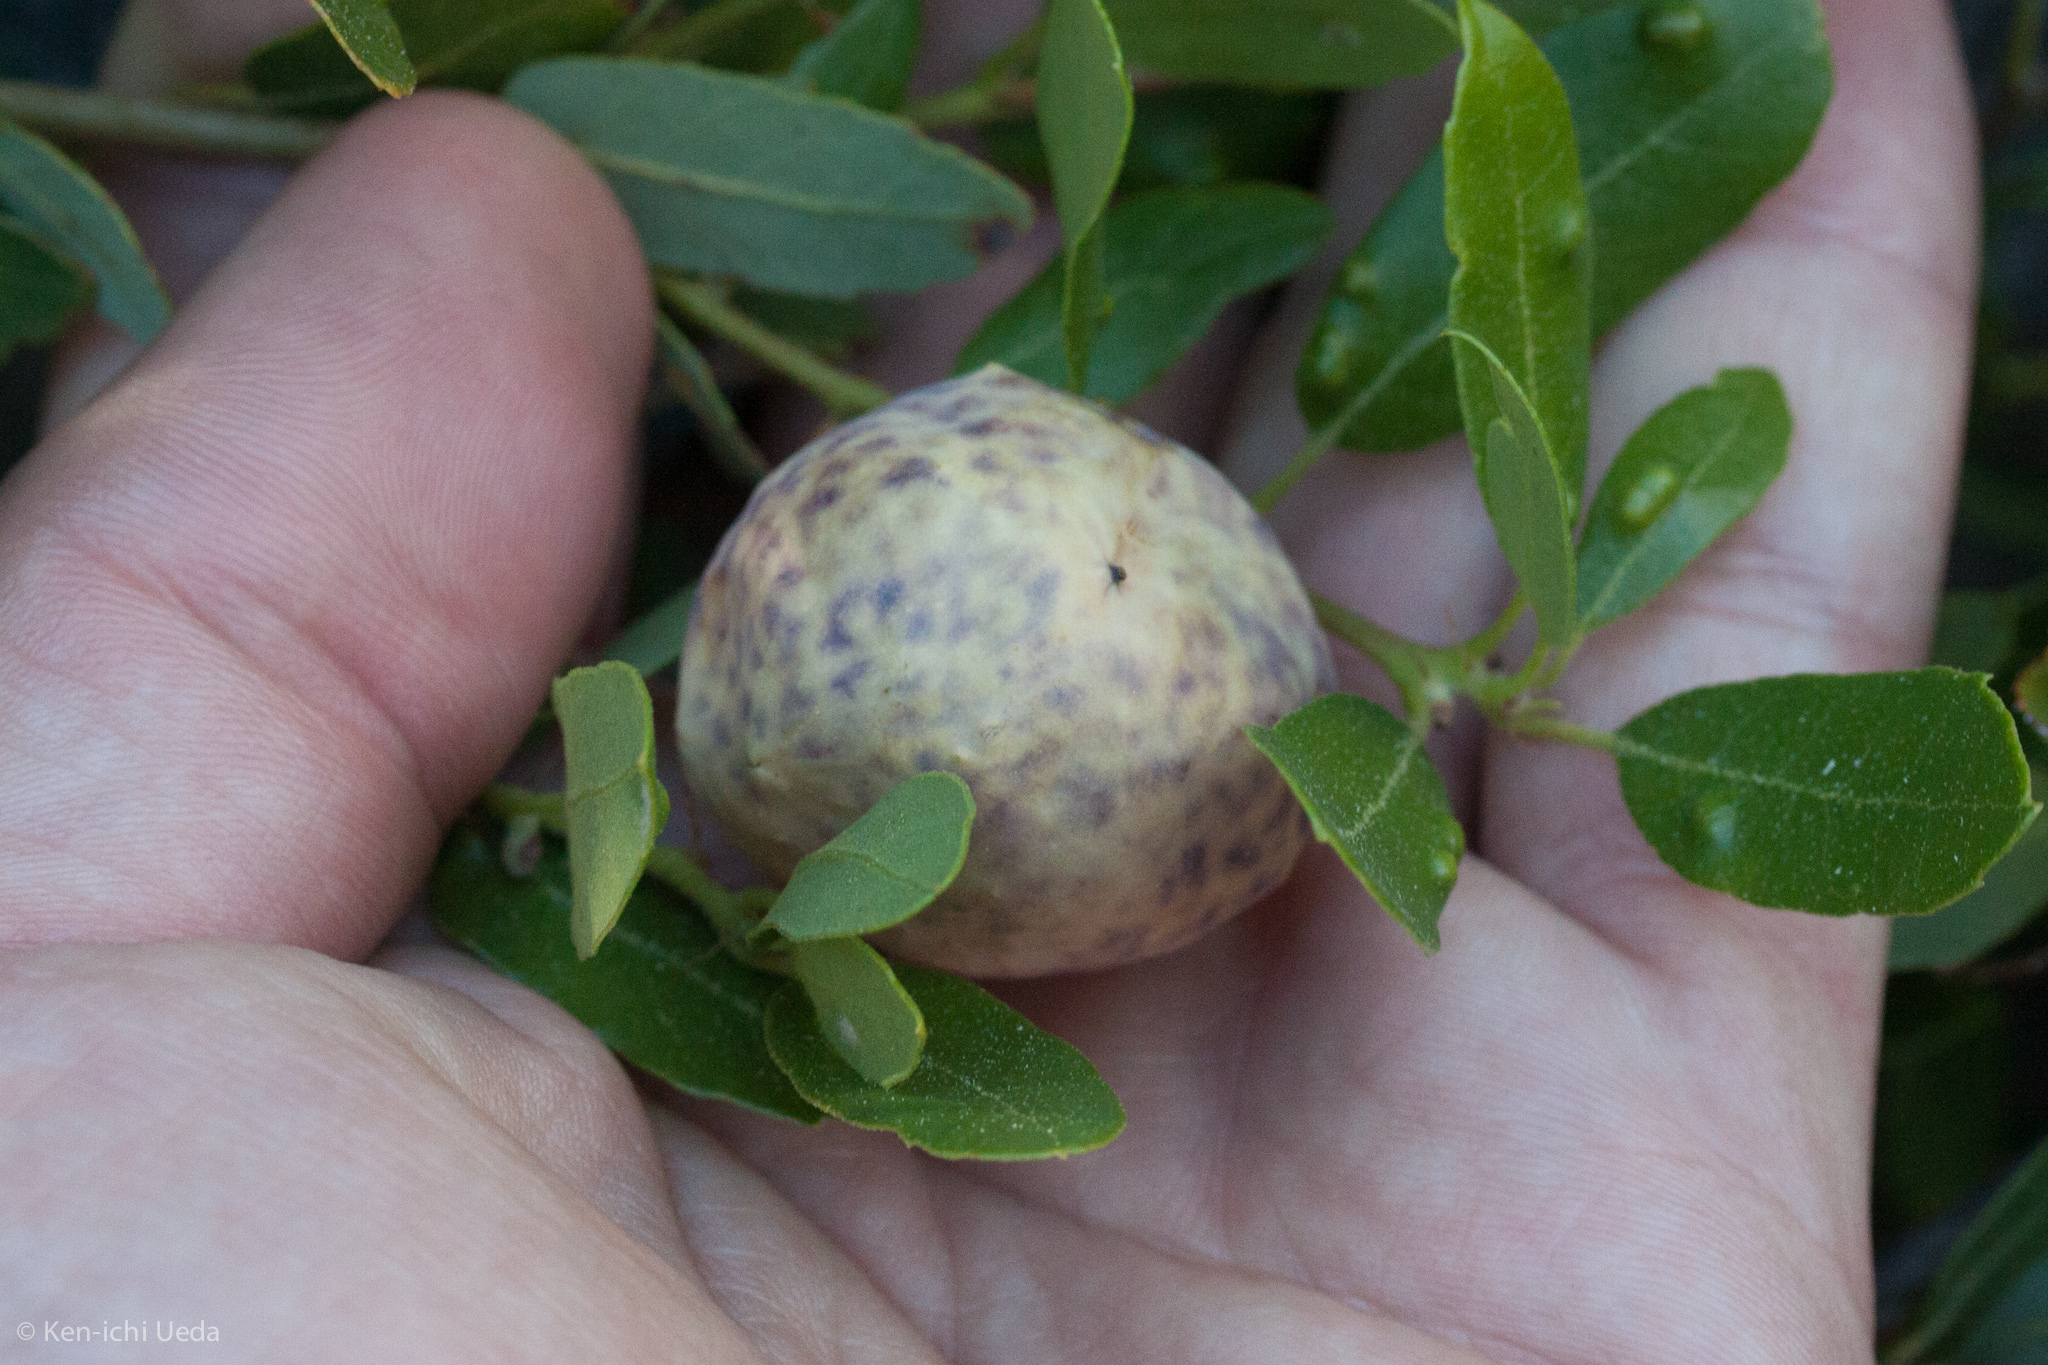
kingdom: Animalia
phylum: Arthropoda
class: Insecta
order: Hymenoptera
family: Cynipidae
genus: Andricus
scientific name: Andricus
